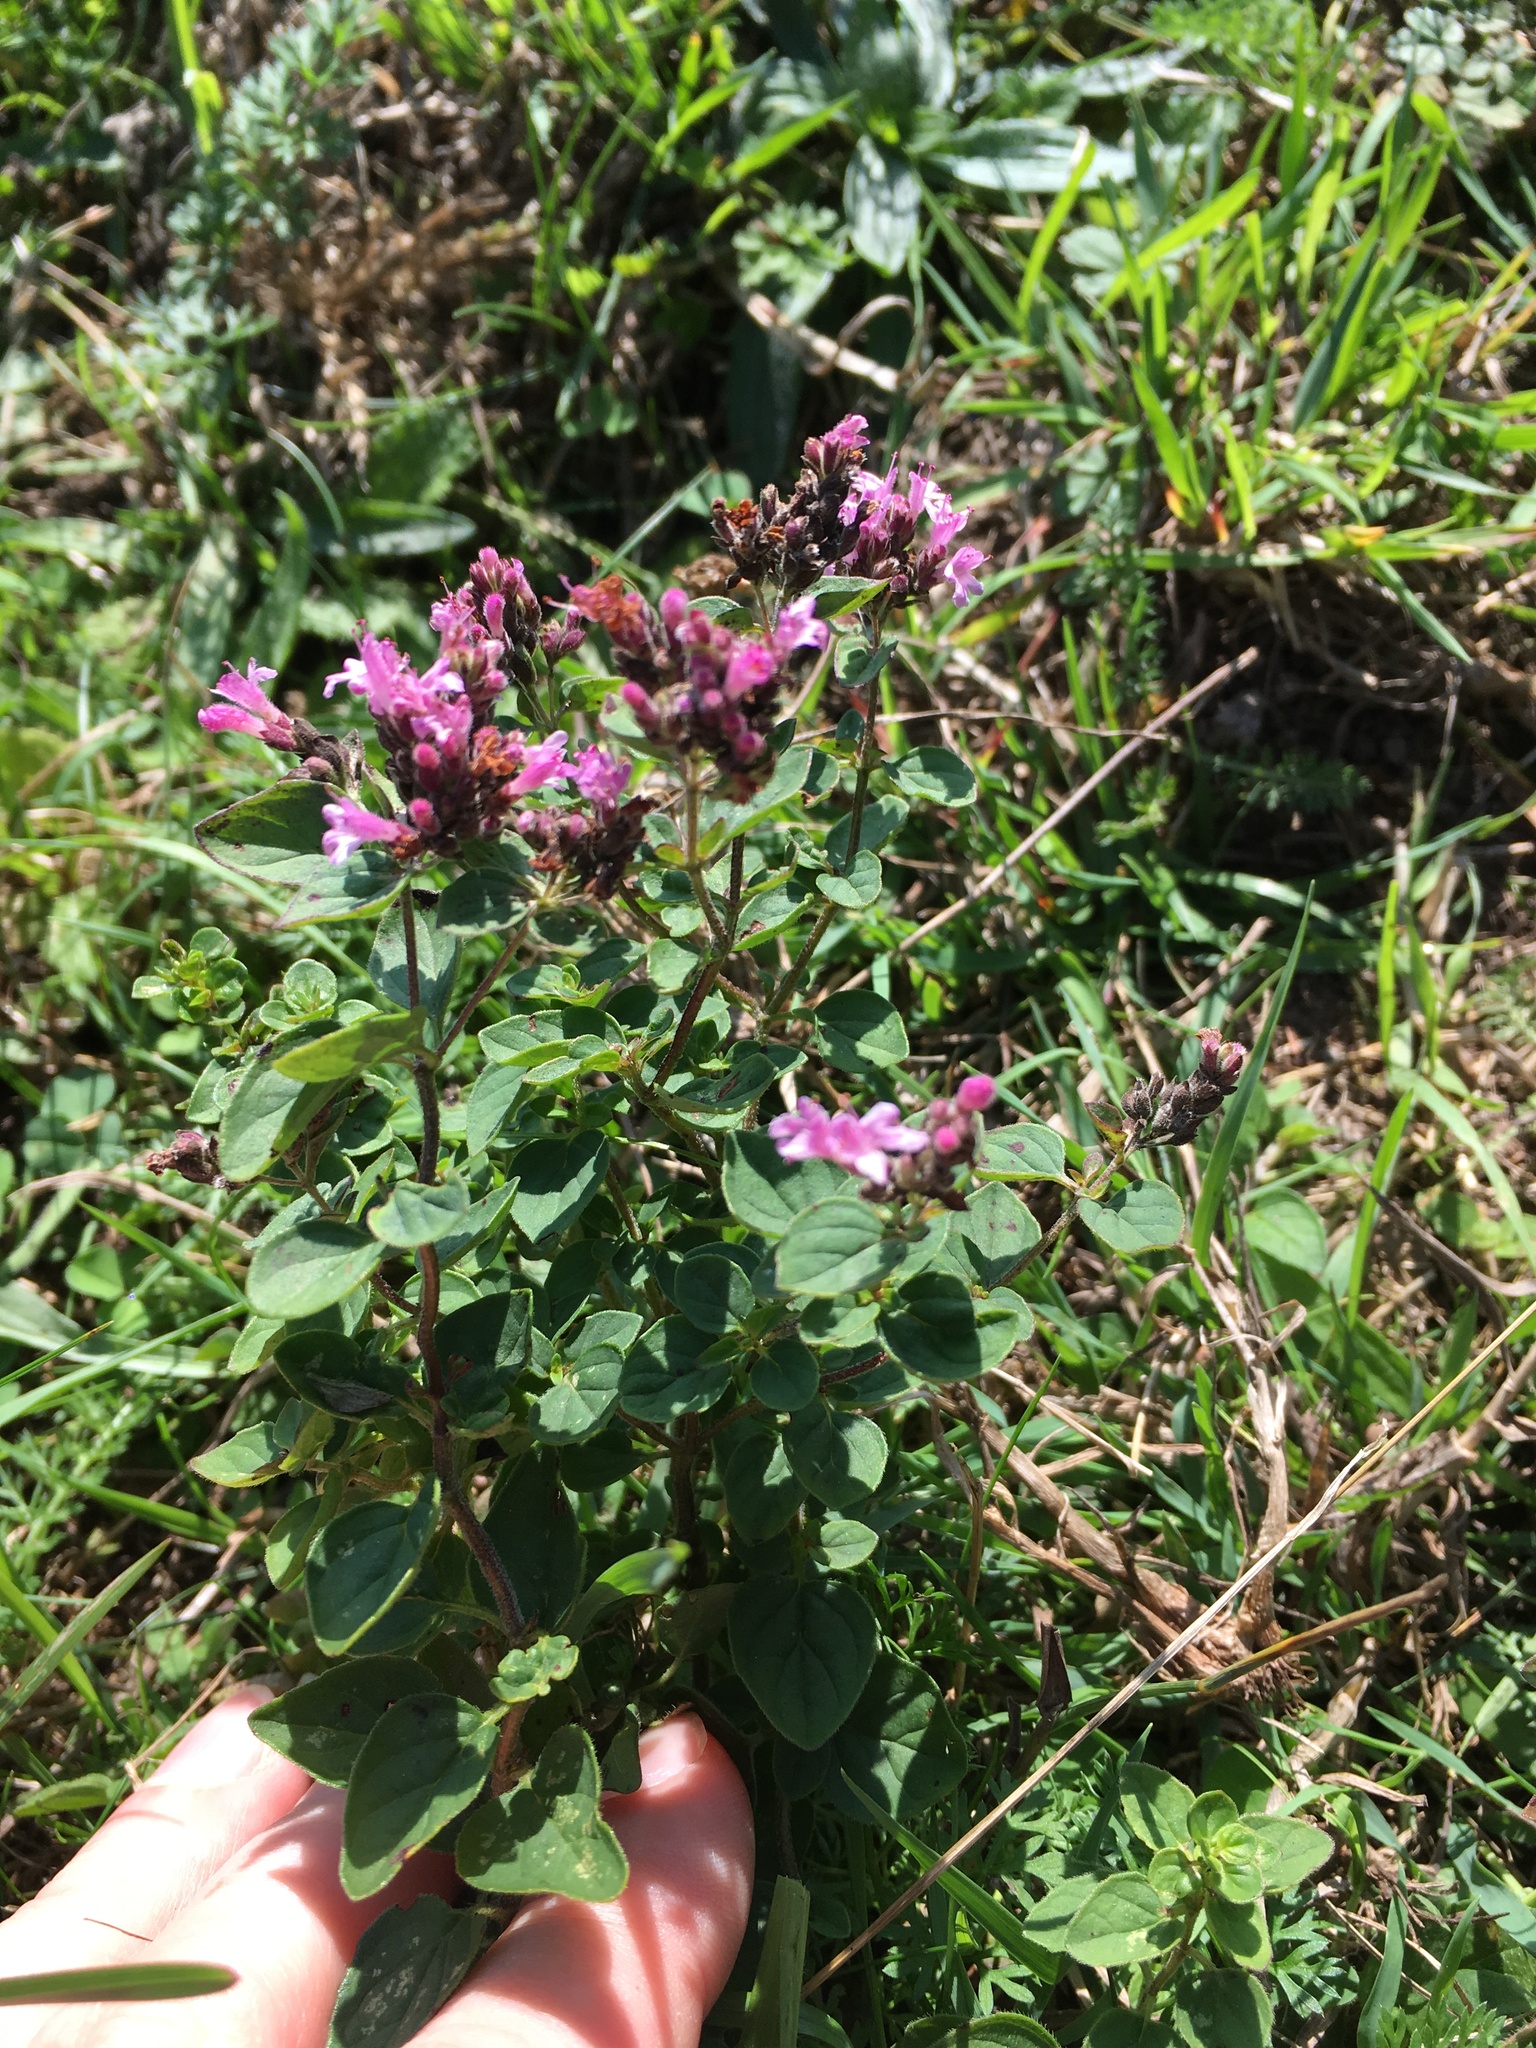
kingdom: Plantae
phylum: Tracheophyta
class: Magnoliopsida
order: Lamiales
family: Lamiaceae
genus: Origanum
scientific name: Origanum vulgare
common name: Wild marjoram
